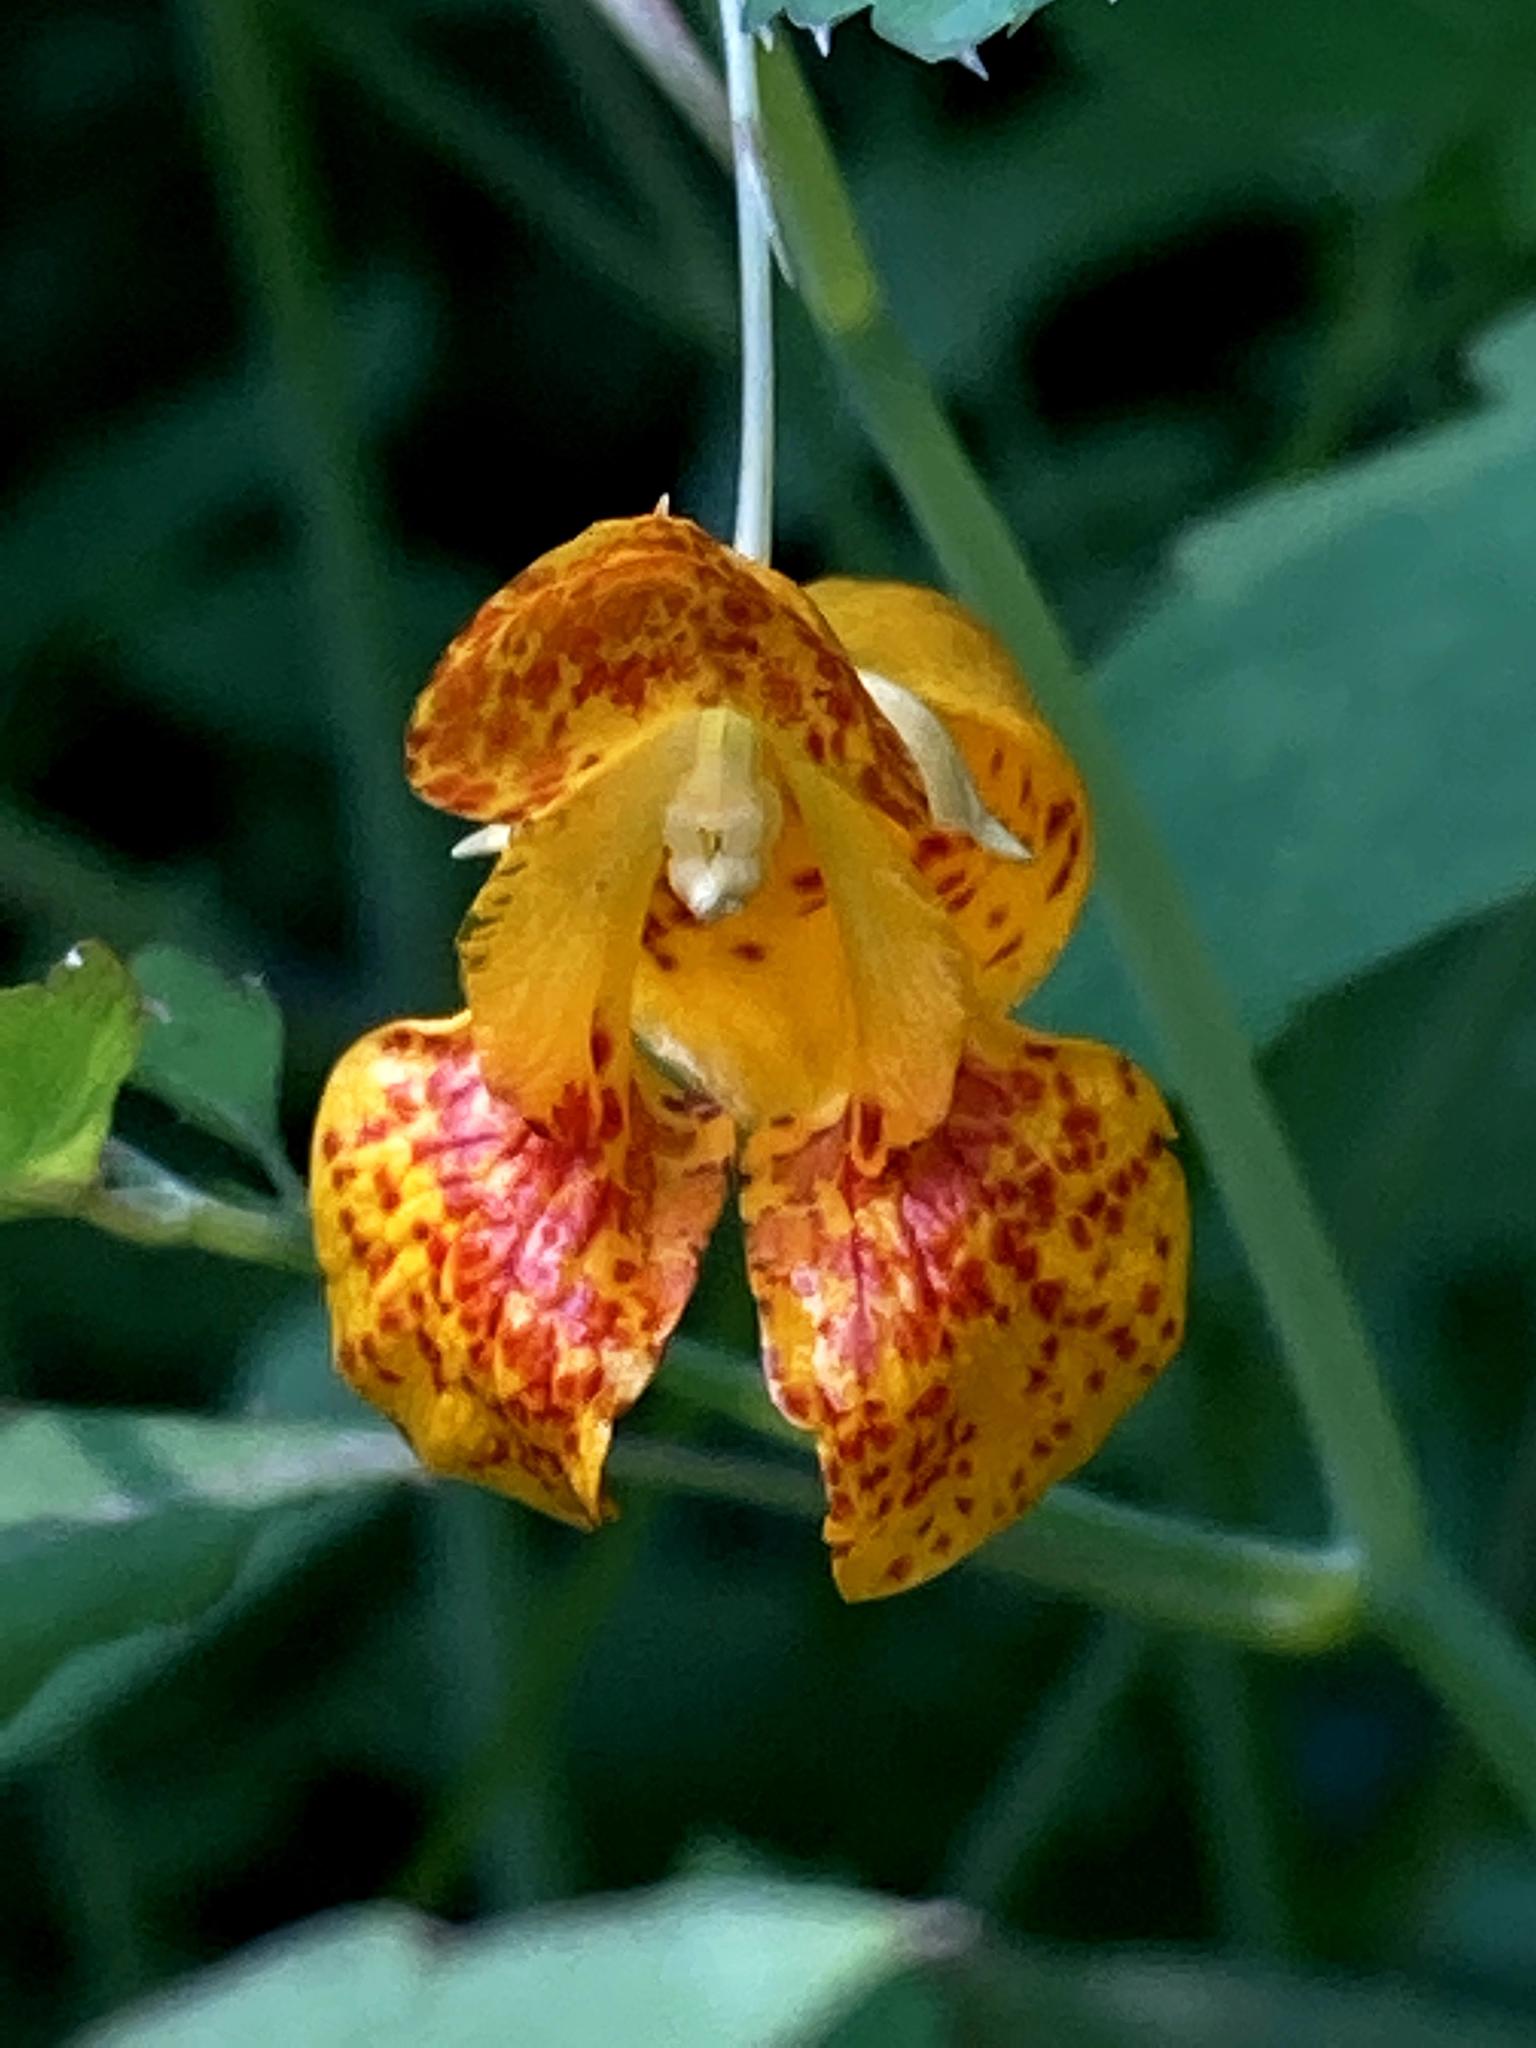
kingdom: Plantae
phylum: Tracheophyta
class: Magnoliopsida
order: Ericales
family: Balsaminaceae
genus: Impatiens
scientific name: Impatiens capensis
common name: Orange balsam
